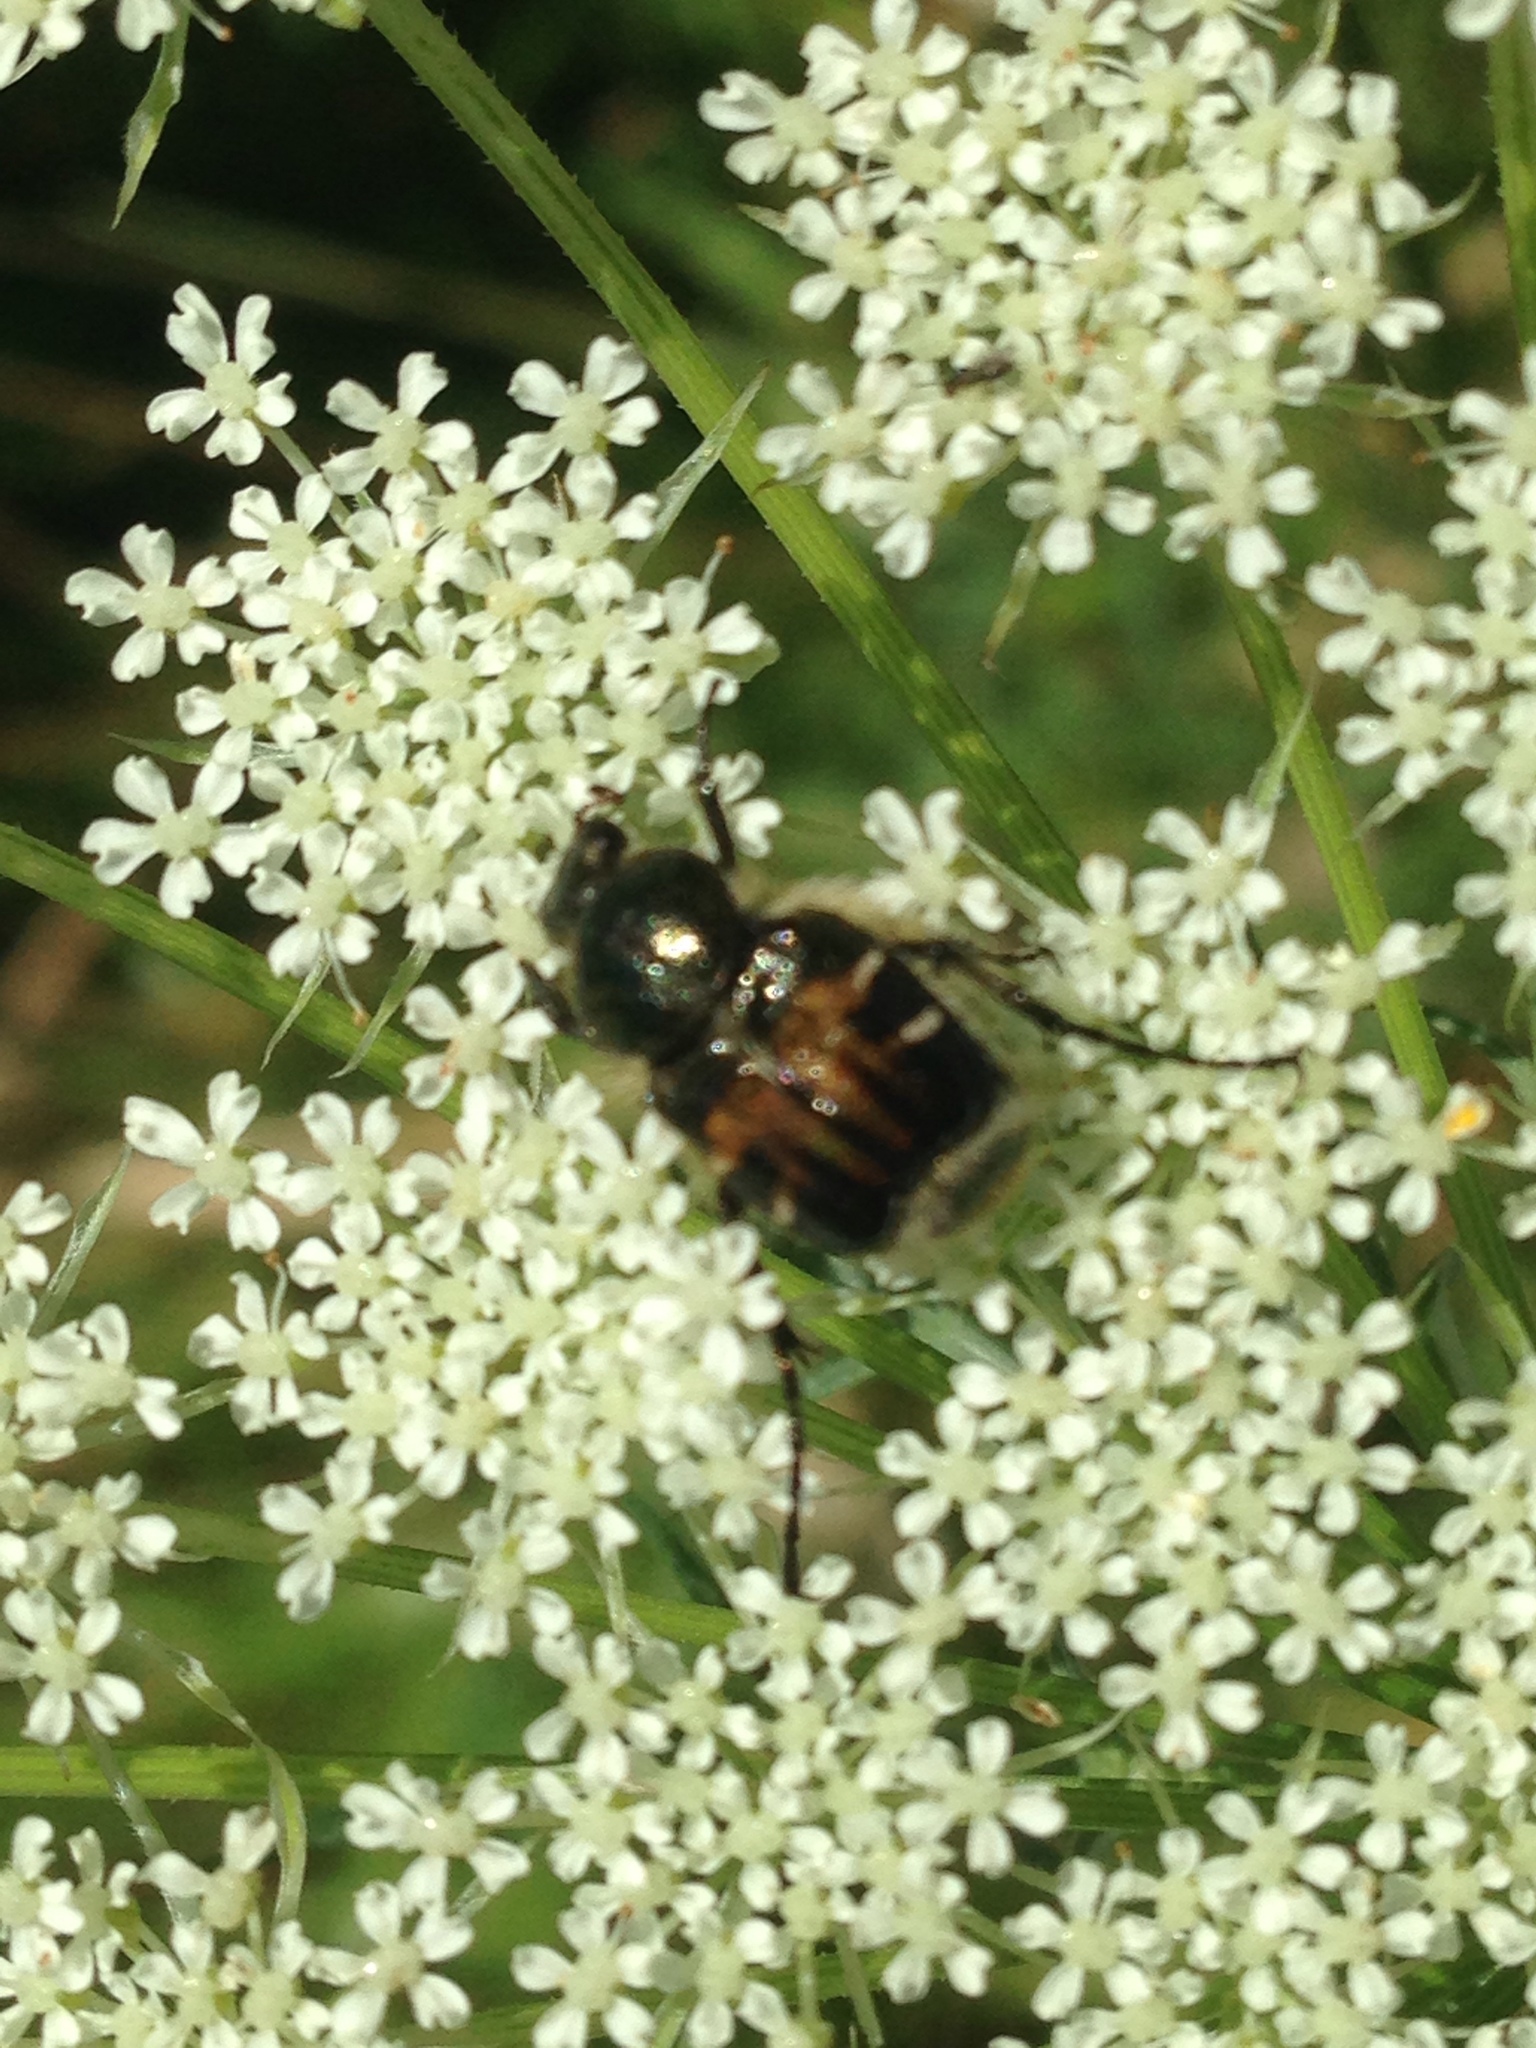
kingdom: Animalia
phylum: Arthropoda
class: Insecta
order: Coleoptera
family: Scarabaeidae
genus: Trichiotinus
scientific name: Trichiotinus piger
